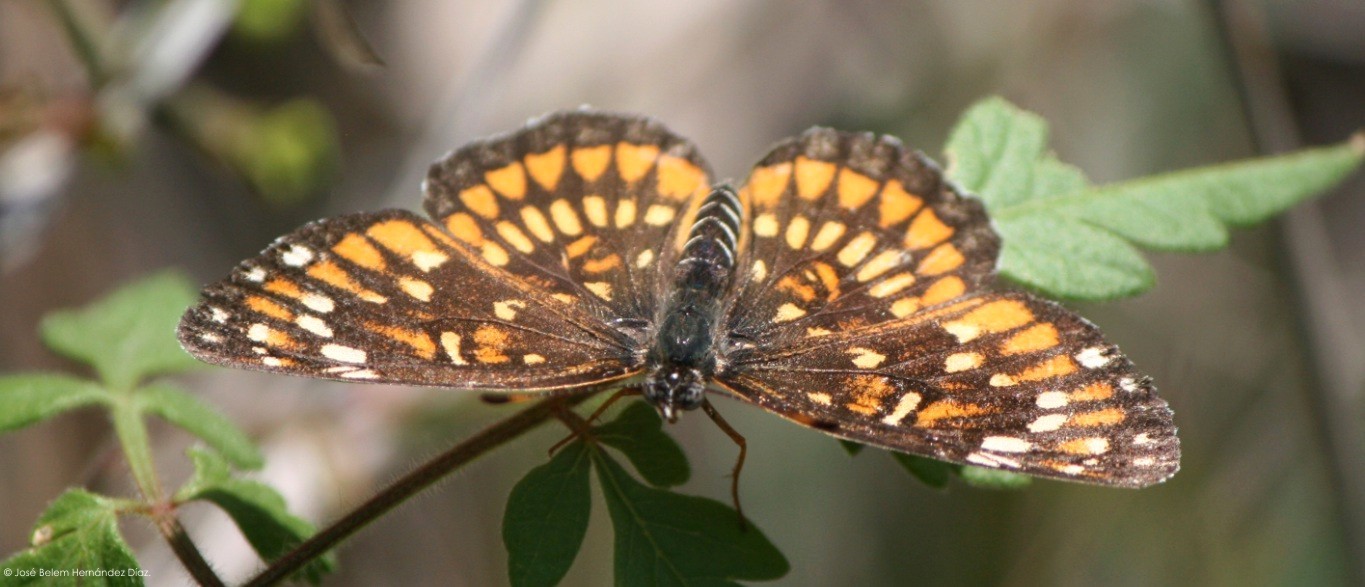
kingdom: Animalia
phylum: Arthropoda
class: Insecta
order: Lepidoptera
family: Nymphalidae
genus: Thessalia
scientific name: Thessalia theona
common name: Nymphalid moth
